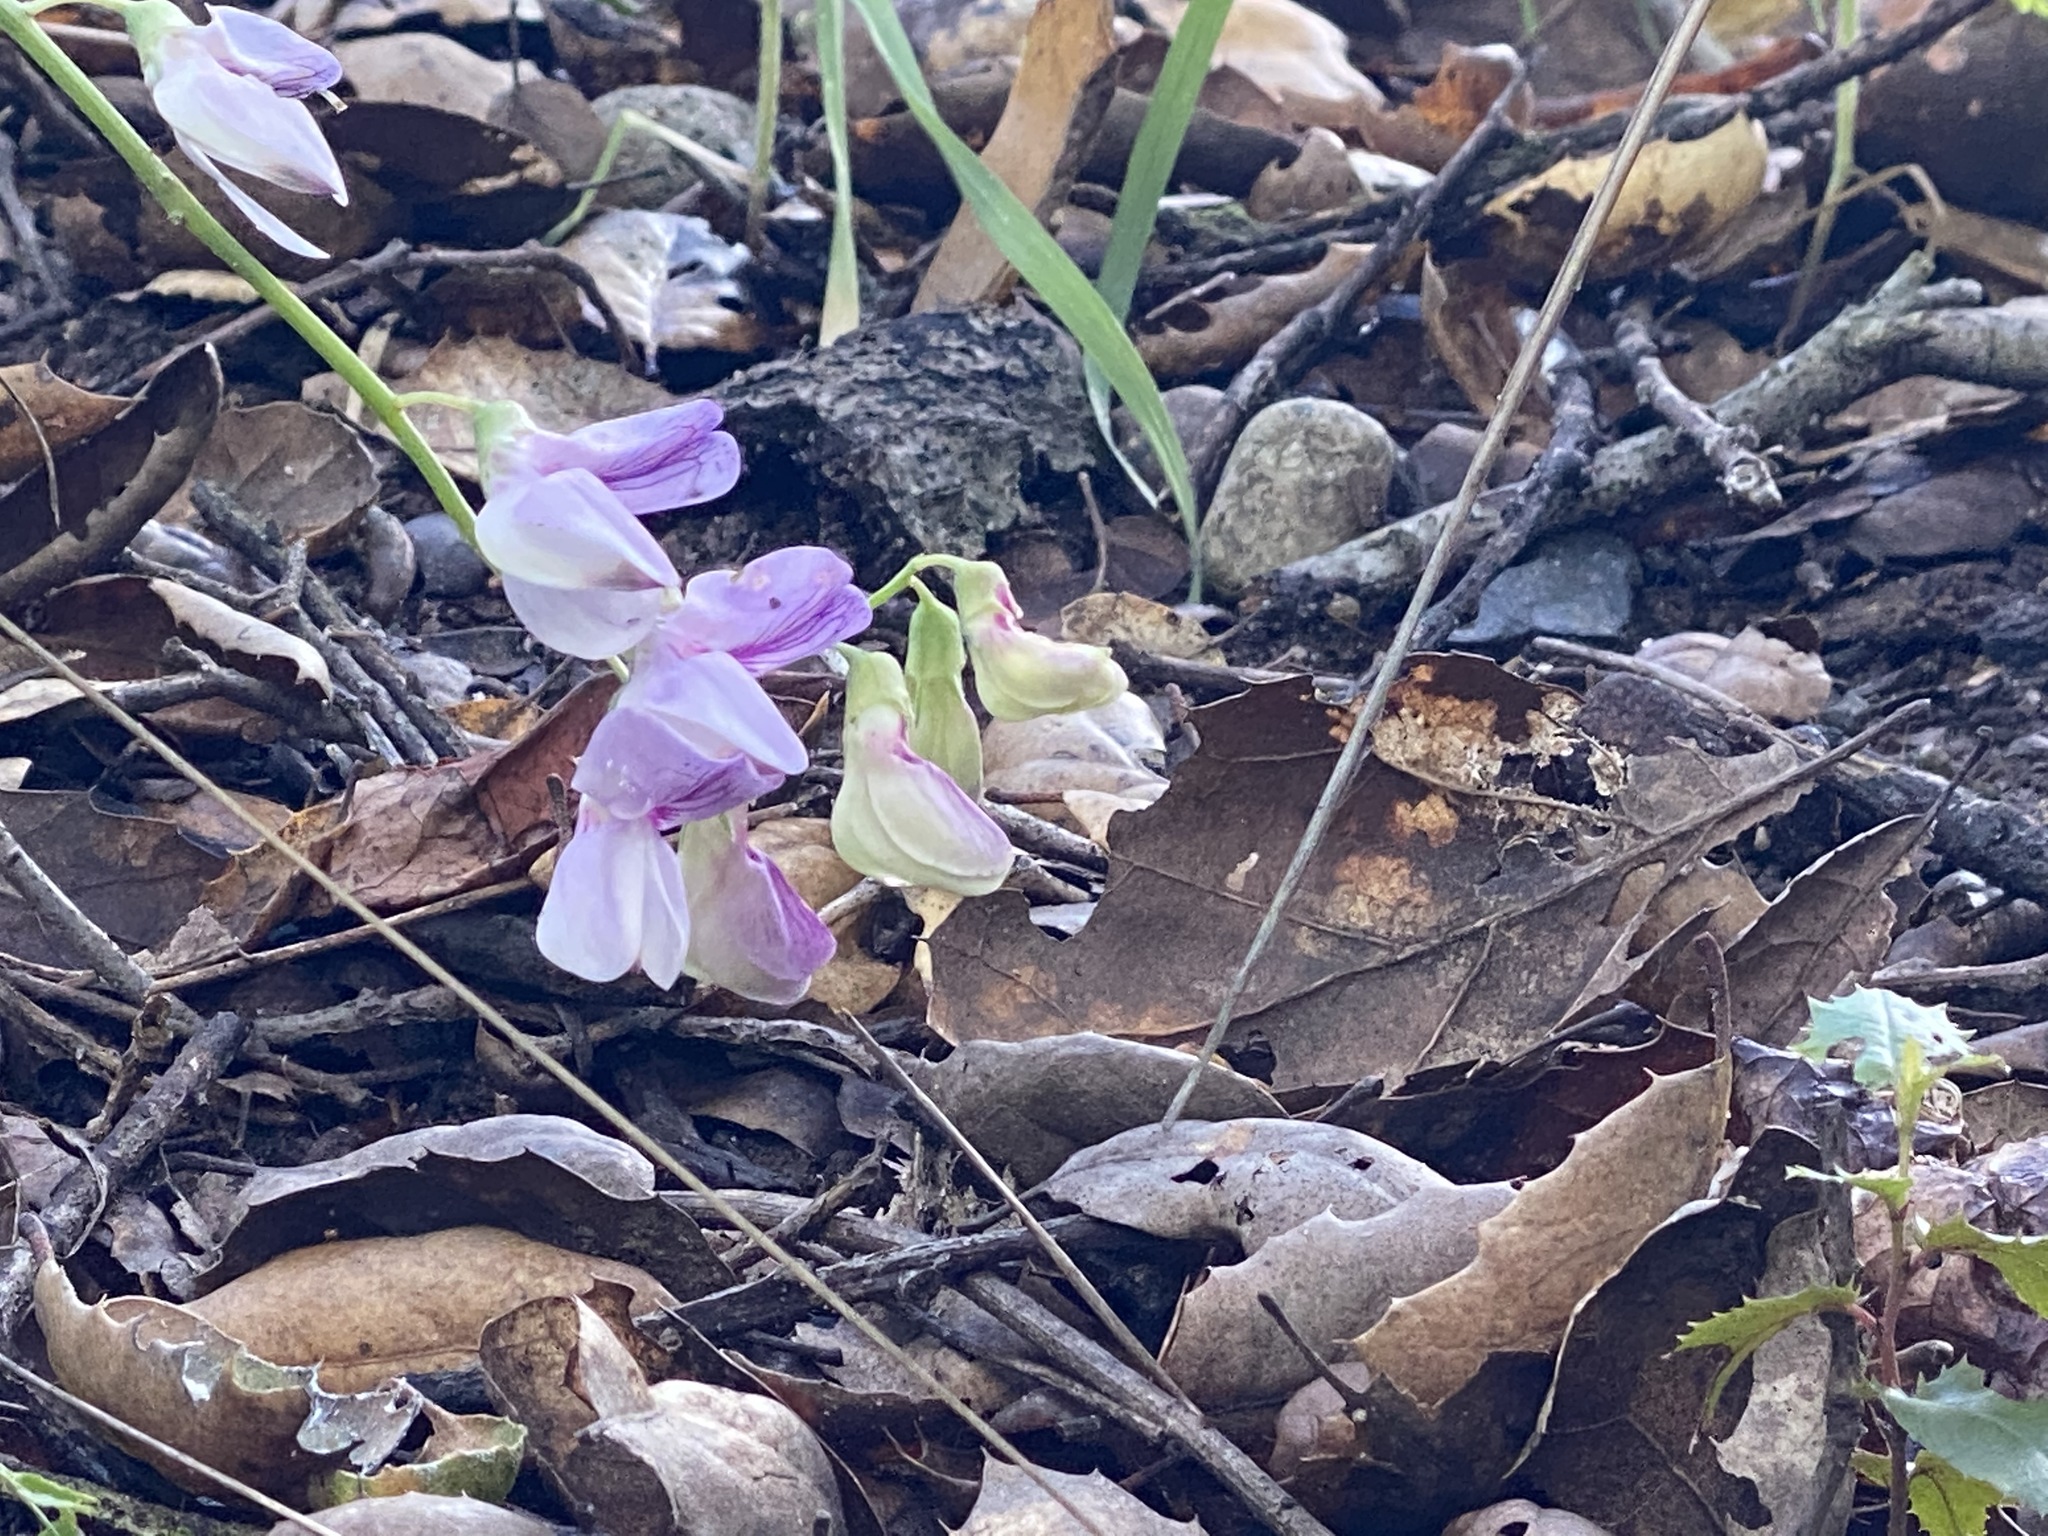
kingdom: Plantae
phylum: Tracheophyta
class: Magnoliopsida
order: Fabales
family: Fabaceae
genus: Lathyrus
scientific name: Lathyrus vestitus
